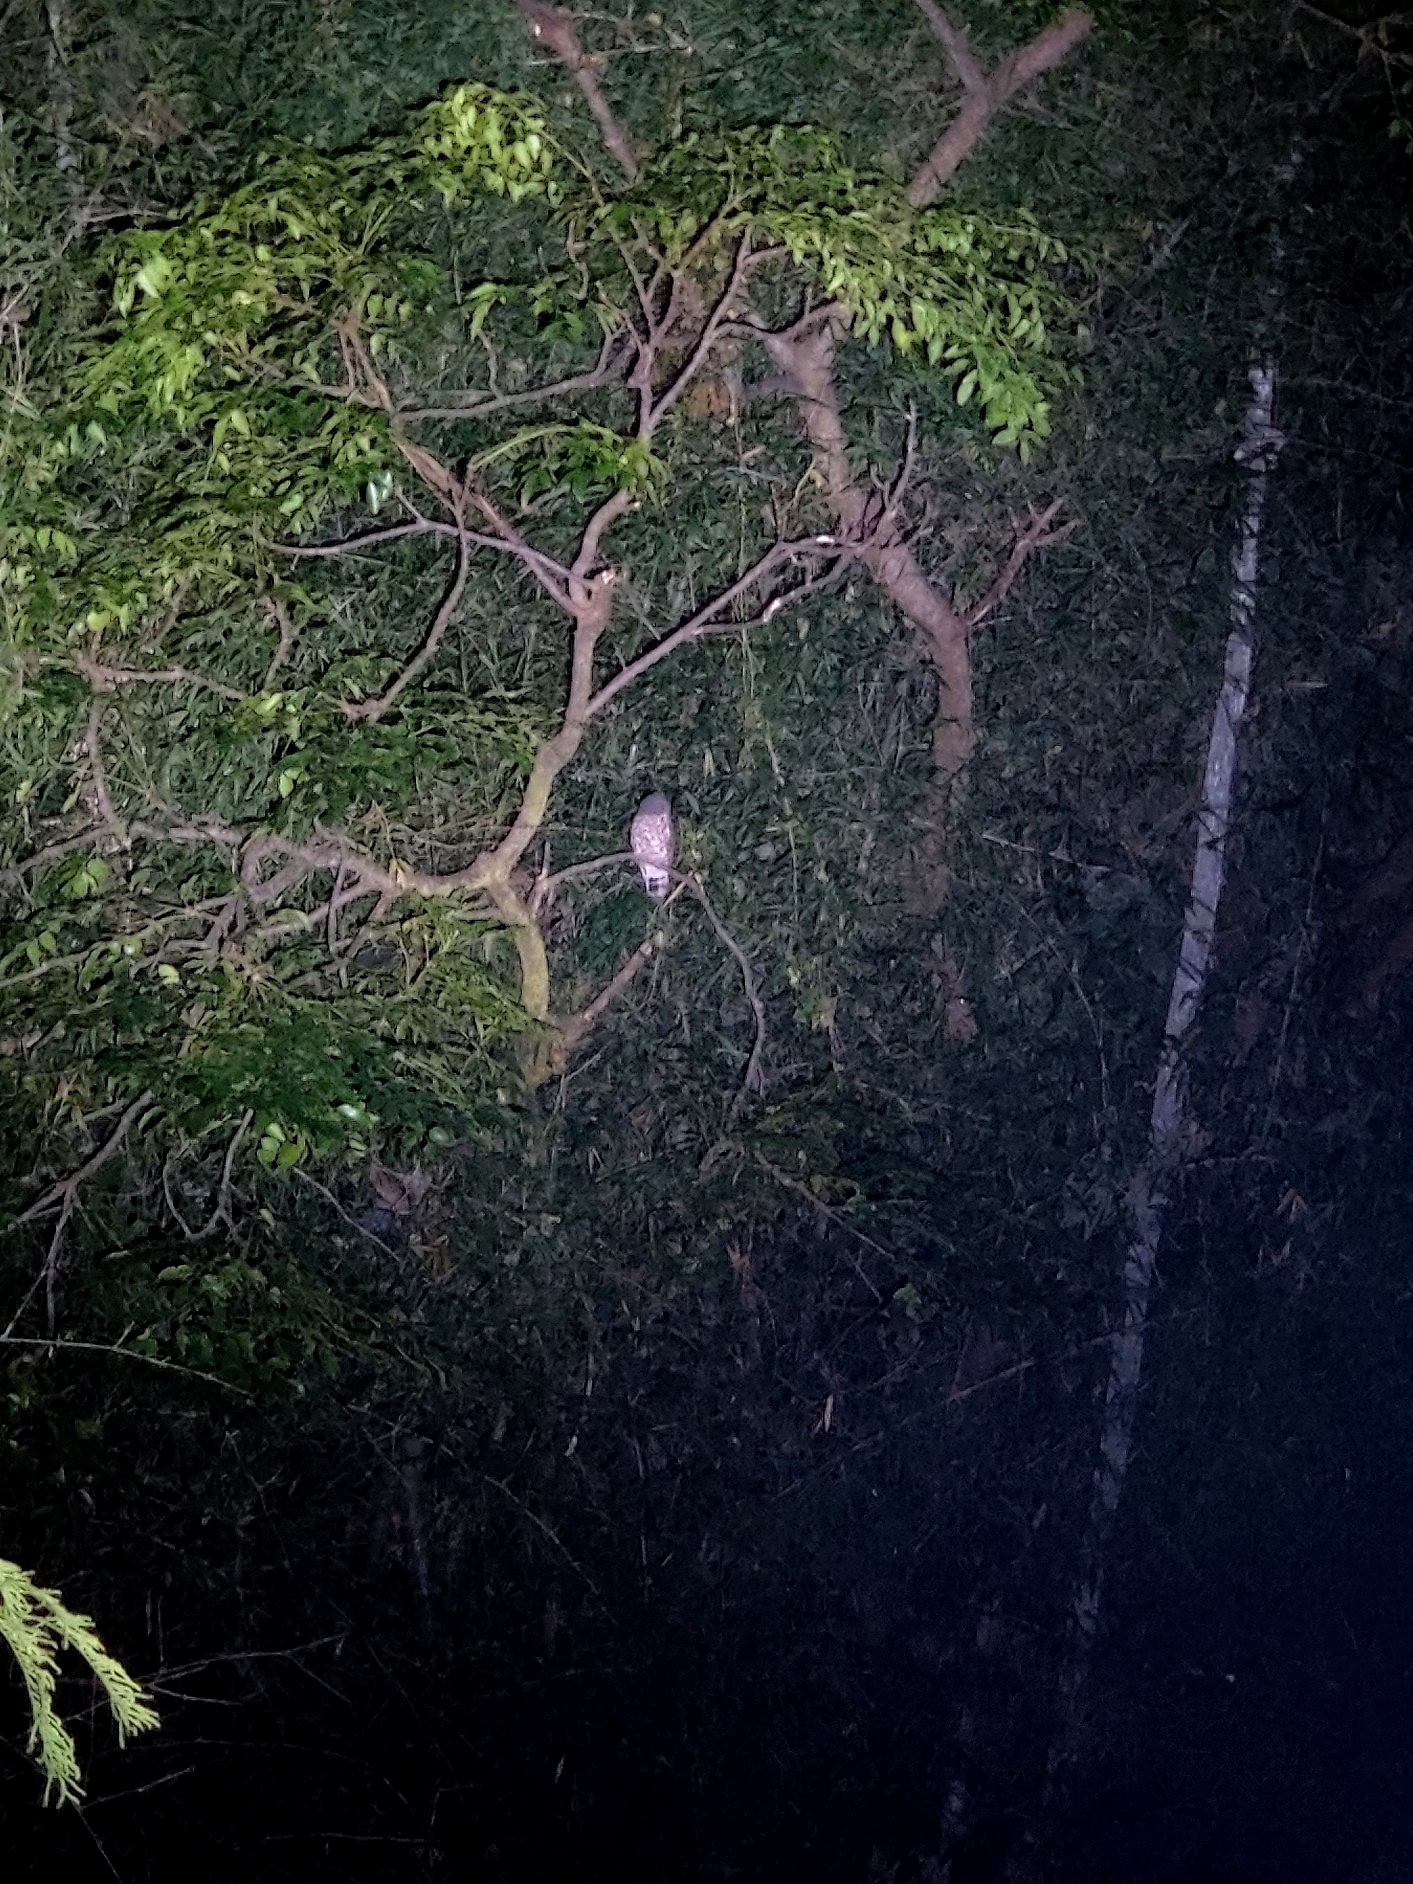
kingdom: Animalia
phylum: Chordata
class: Aves
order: Strigiformes
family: Strigidae
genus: Ninox
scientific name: Ninox scutulata
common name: Brown hawk-owl
